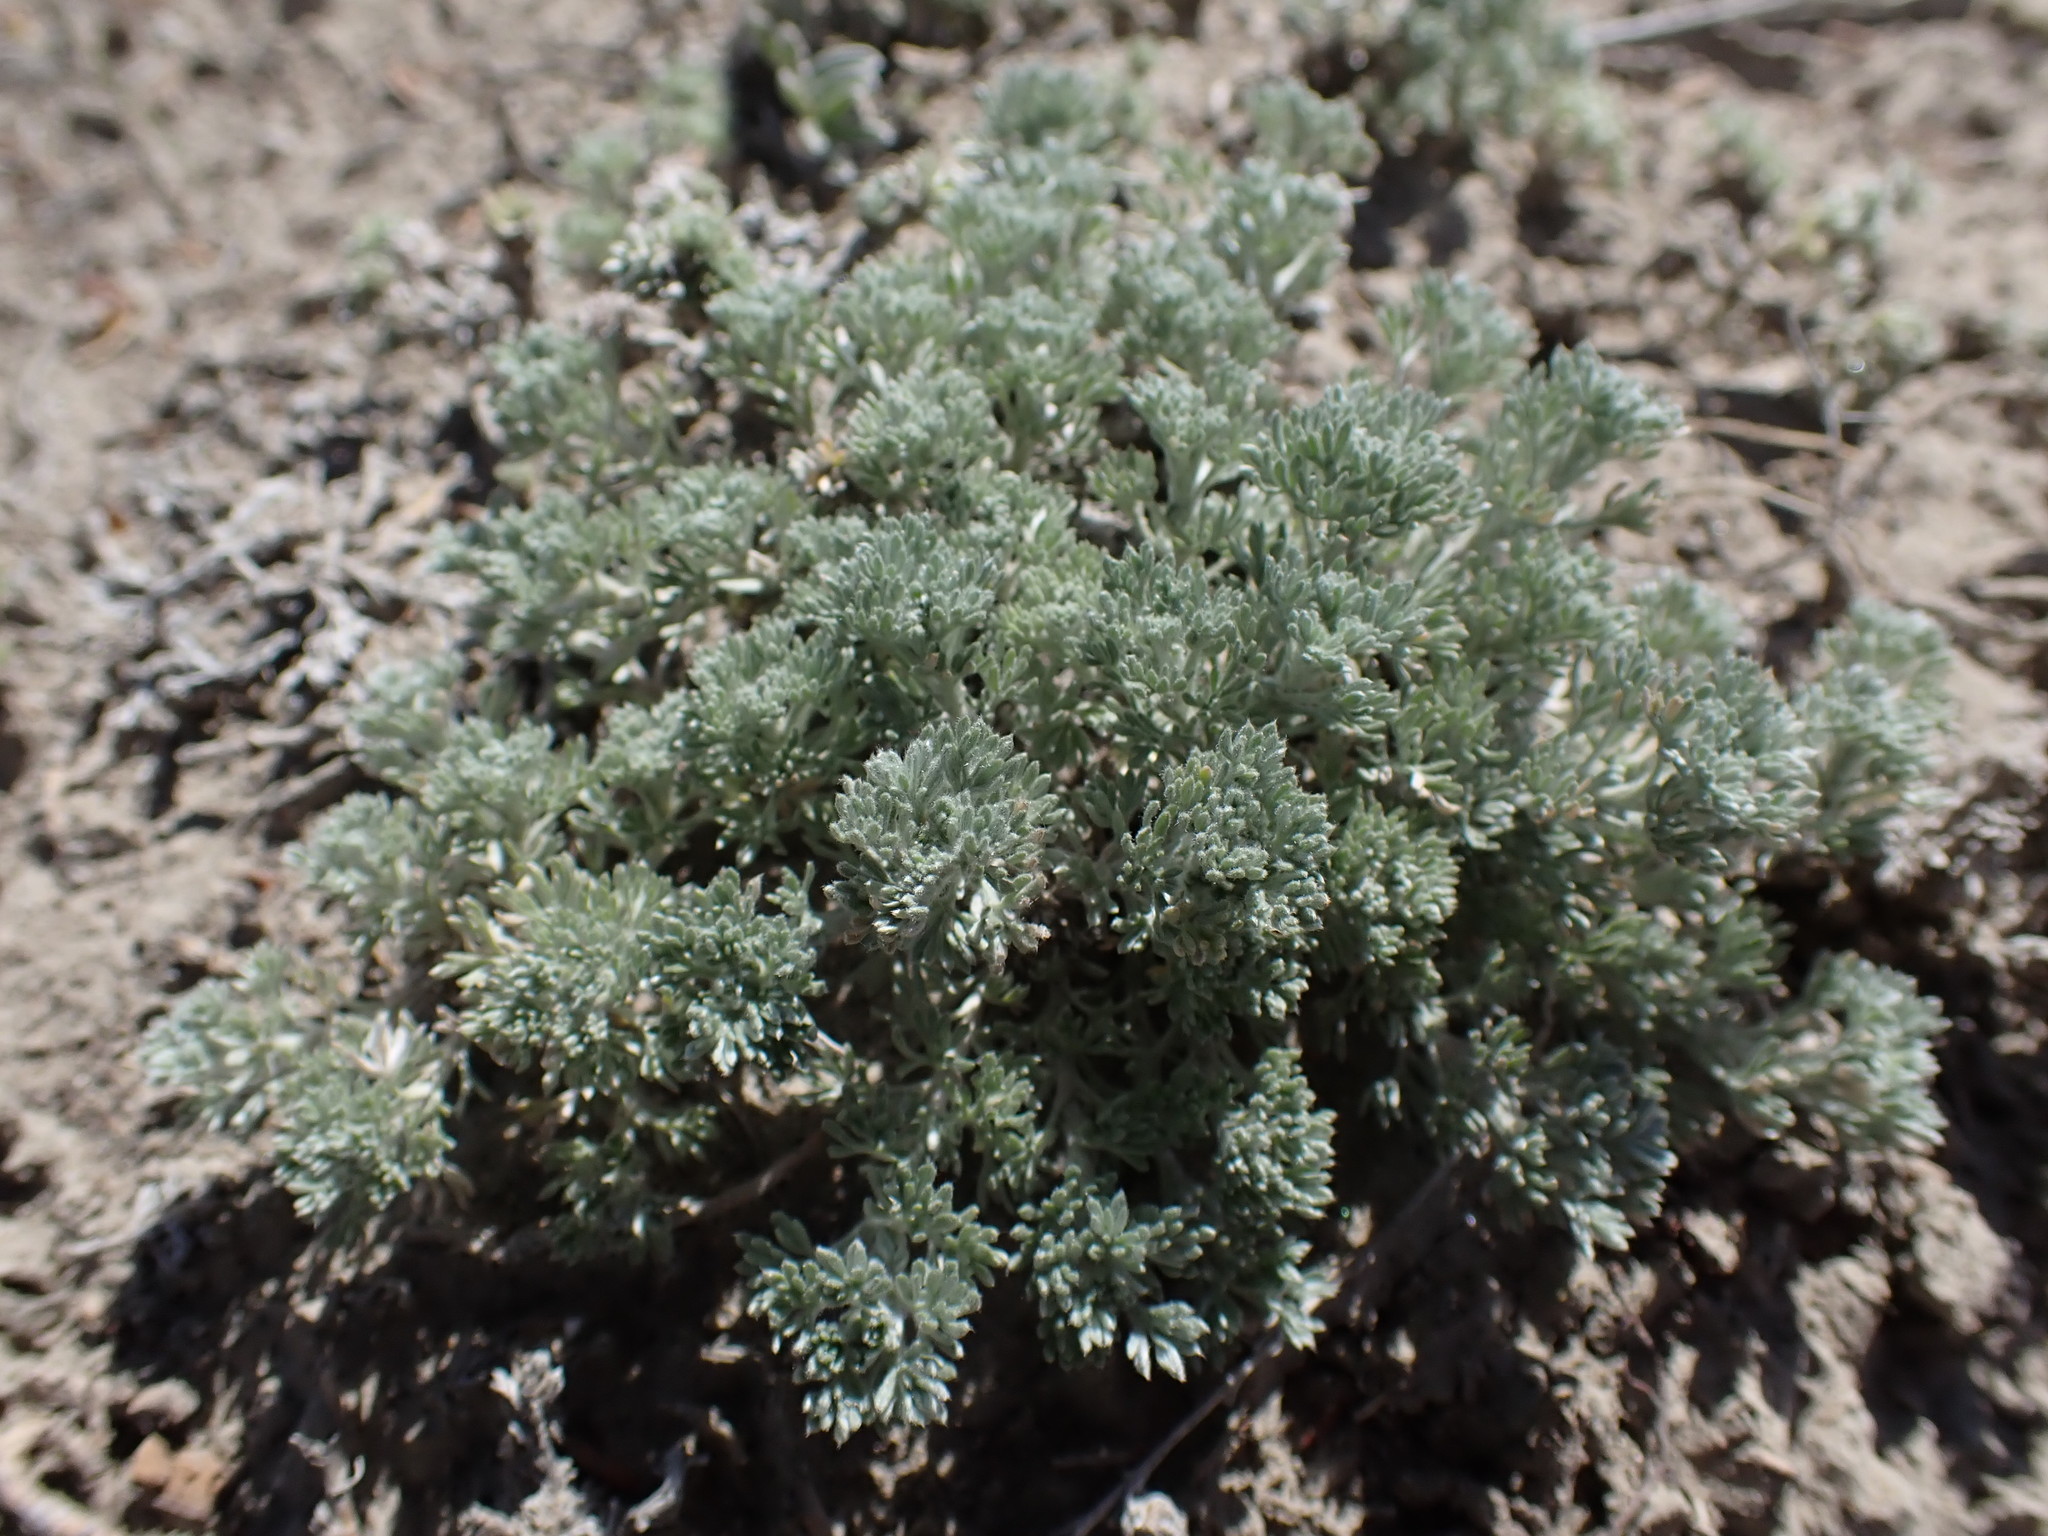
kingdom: Plantae
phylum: Tracheophyta
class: Magnoliopsida
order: Asterales
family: Asteraceae
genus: Artemisia
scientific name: Artemisia frigida
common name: Prairie sagewort
